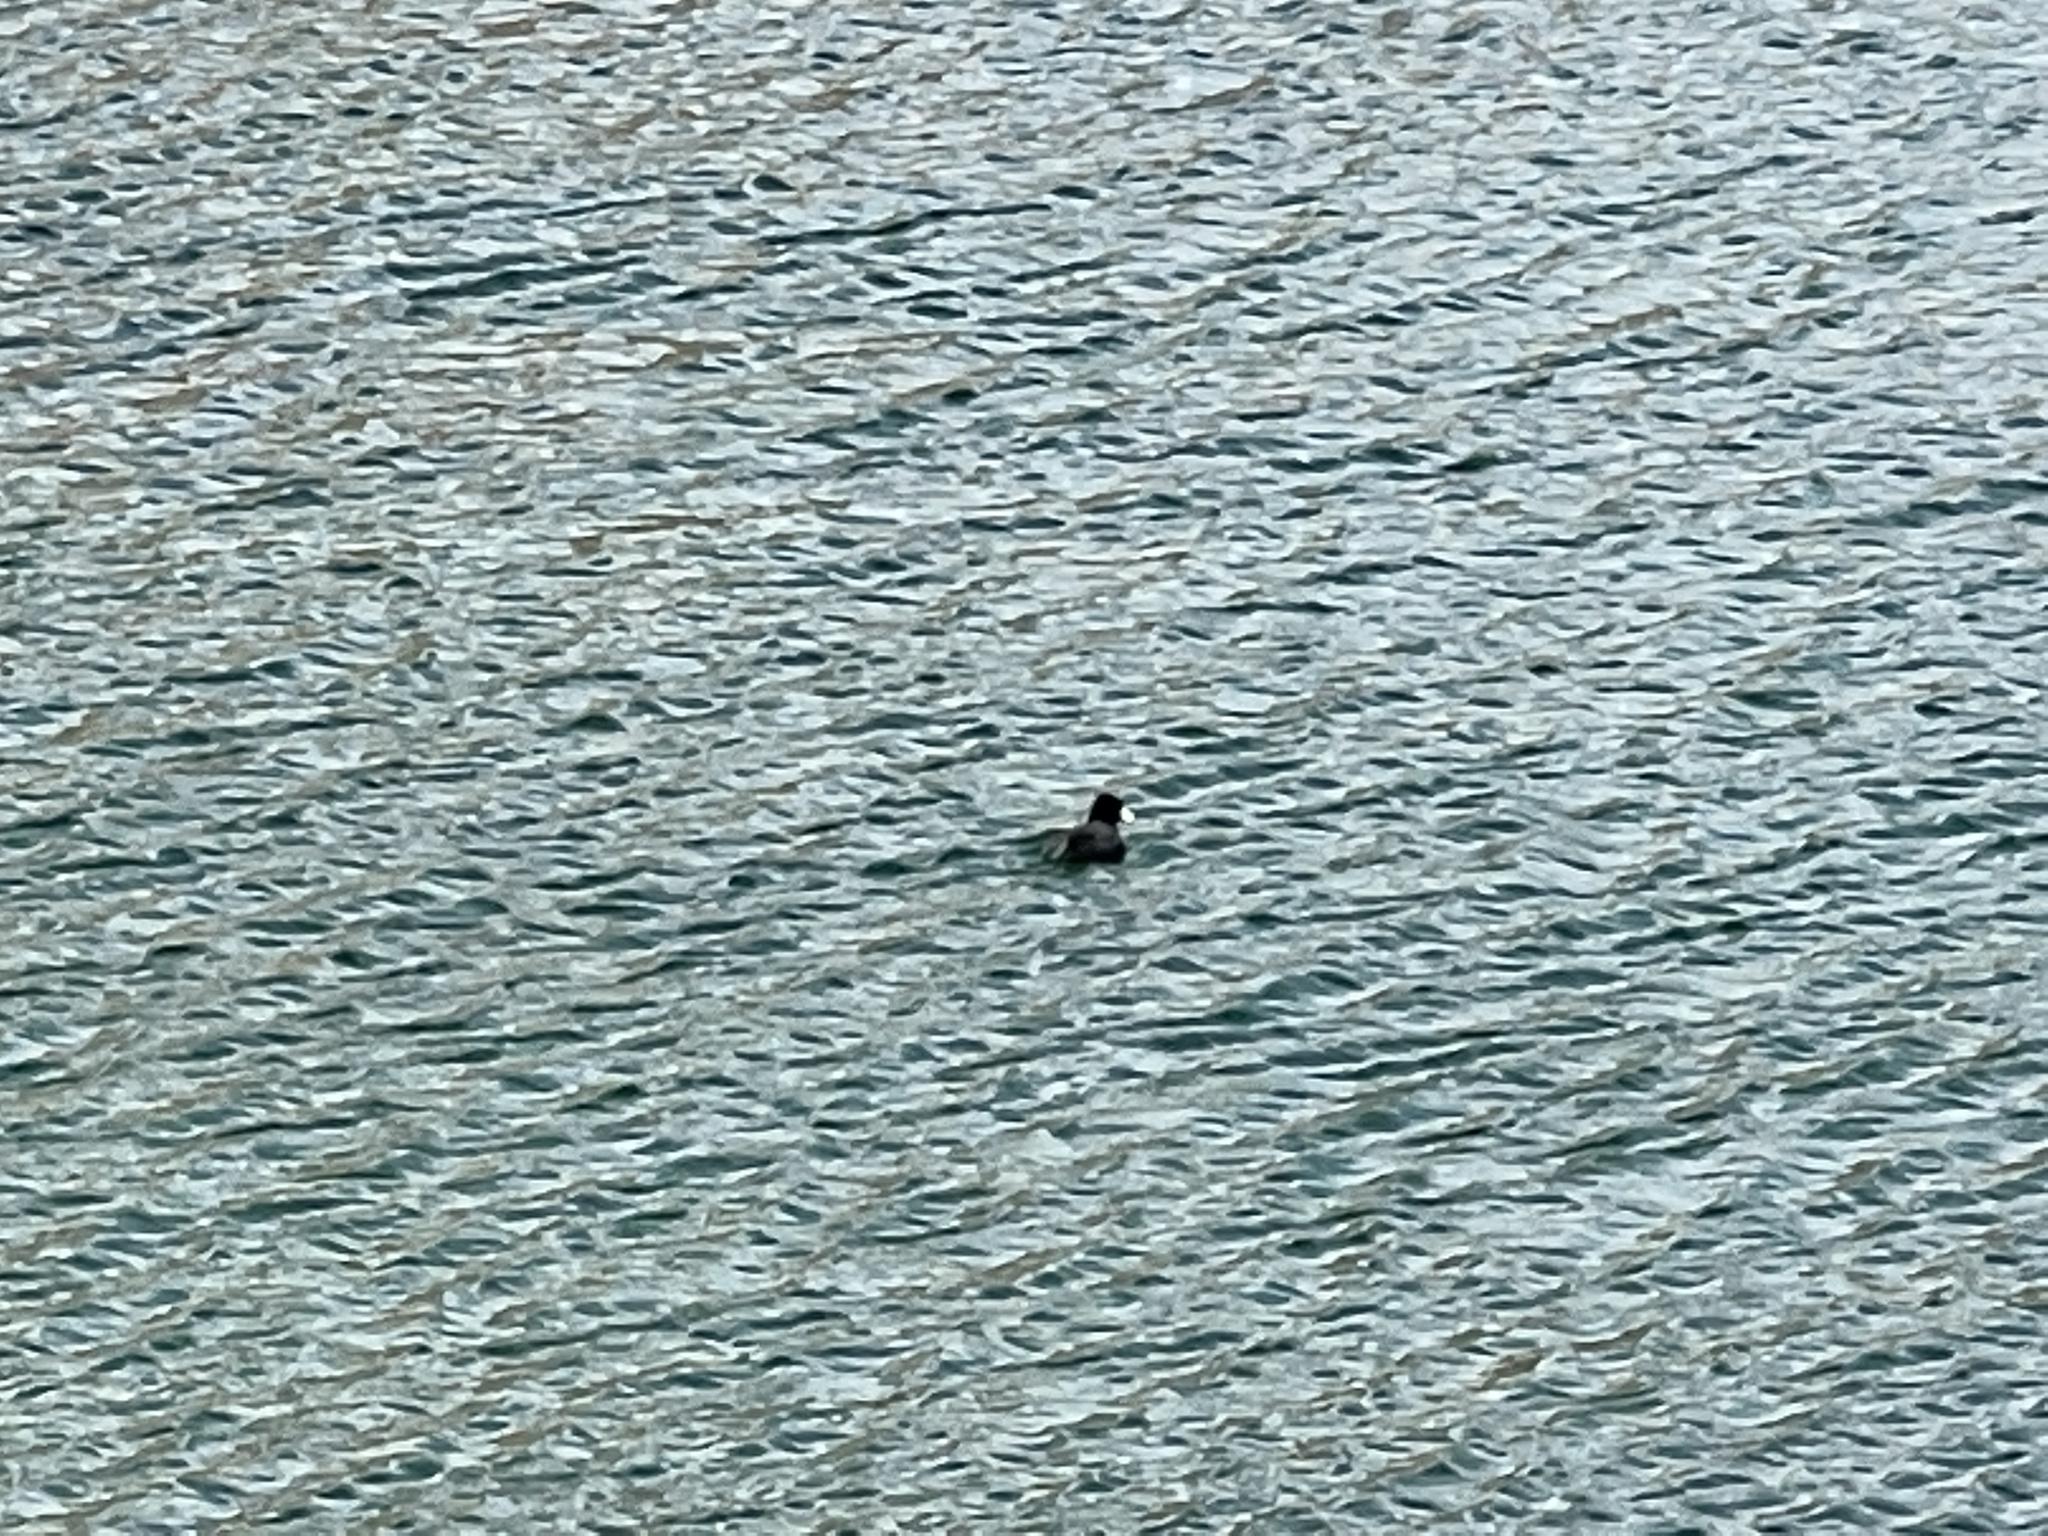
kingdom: Animalia
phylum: Chordata
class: Aves
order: Gruiformes
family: Rallidae
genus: Fulica
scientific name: Fulica americana
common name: American coot
